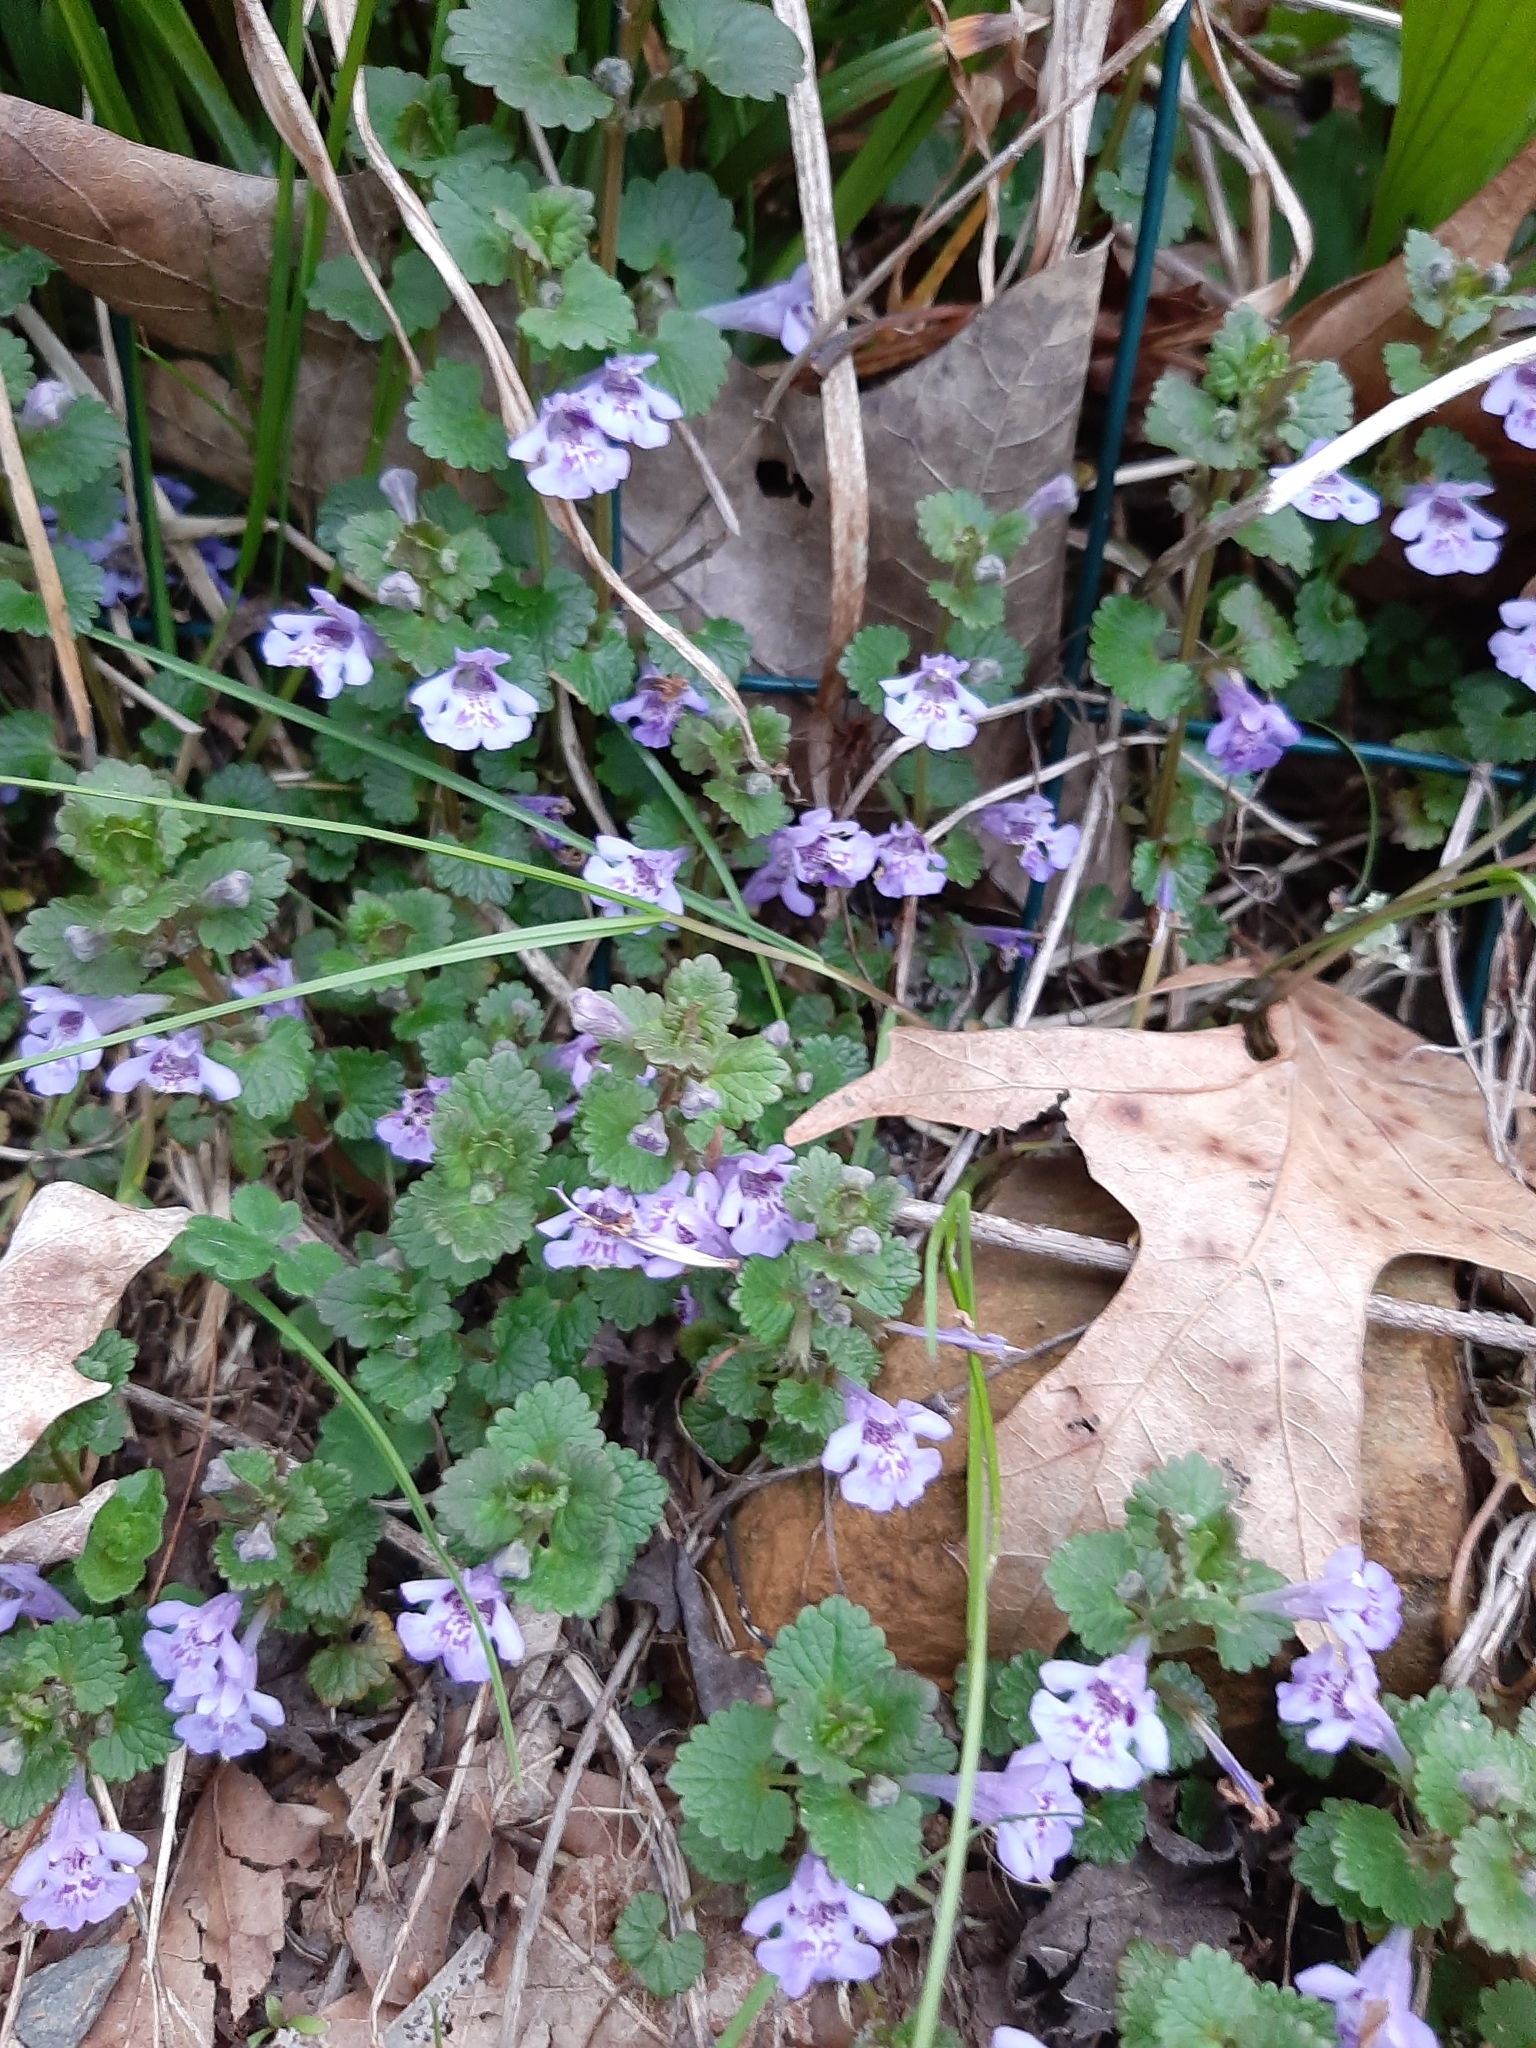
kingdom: Plantae
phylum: Tracheophyta
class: Magnoliopsida
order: Lamiales
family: Lamiaceae
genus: Glechoma
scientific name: Glechoma hederacea
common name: Ground ivy
